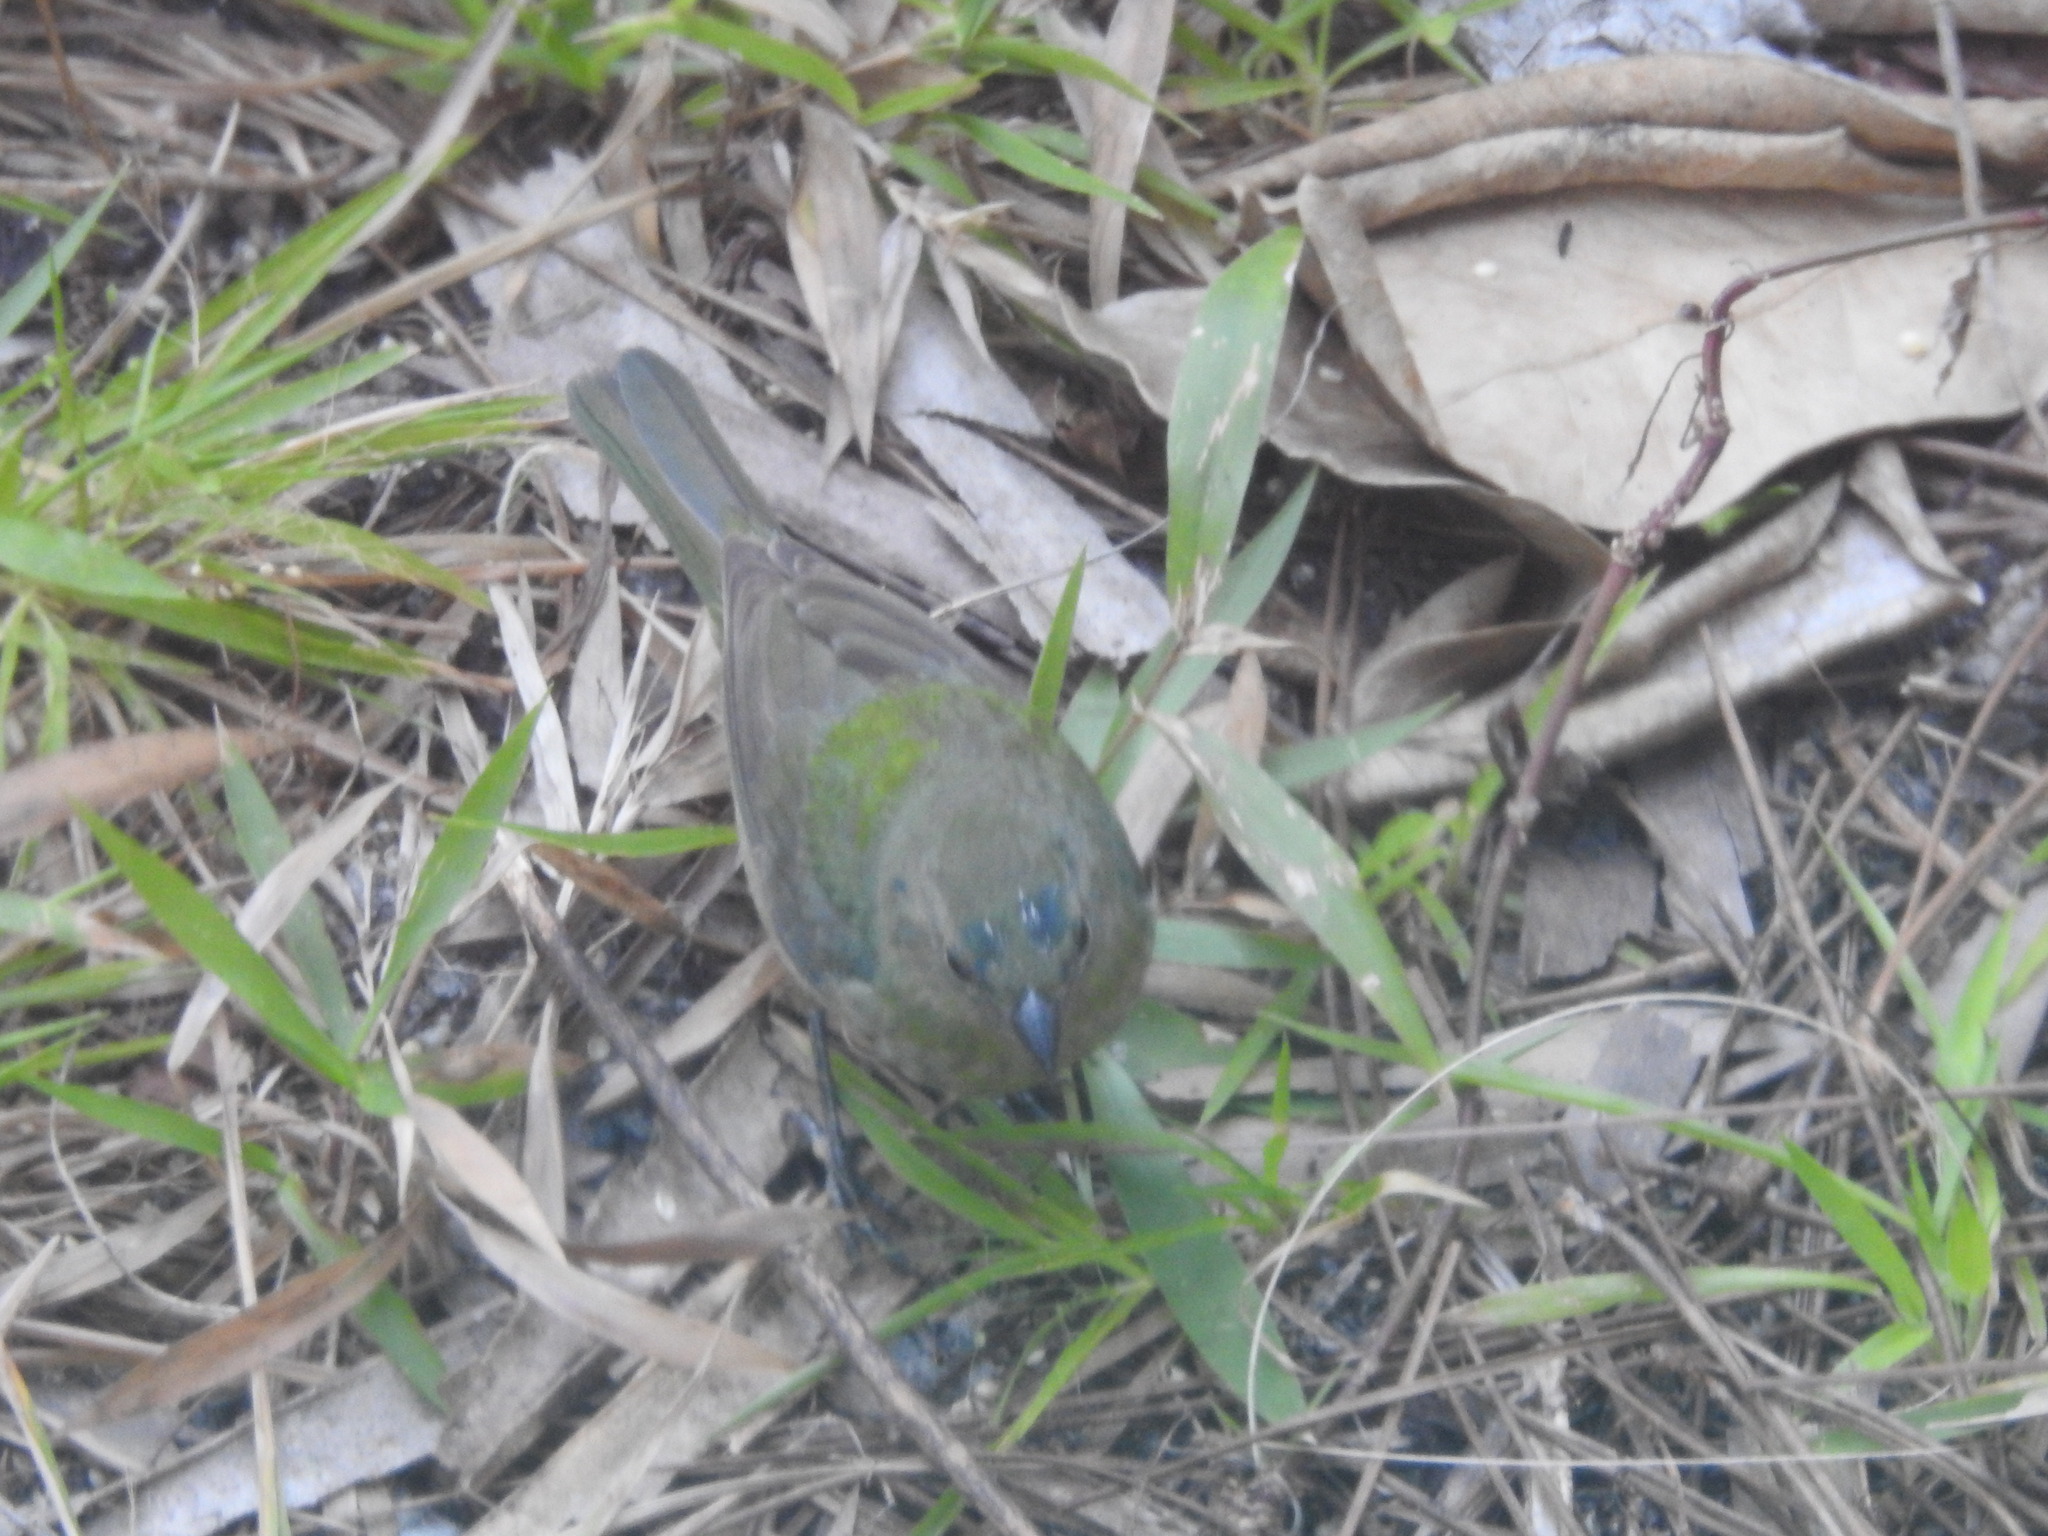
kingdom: Animalia
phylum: Chordata
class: Aves
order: Passeriformes
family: Cardinalidae
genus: Passerina
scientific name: Passerina ciris
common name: Painted bunting
